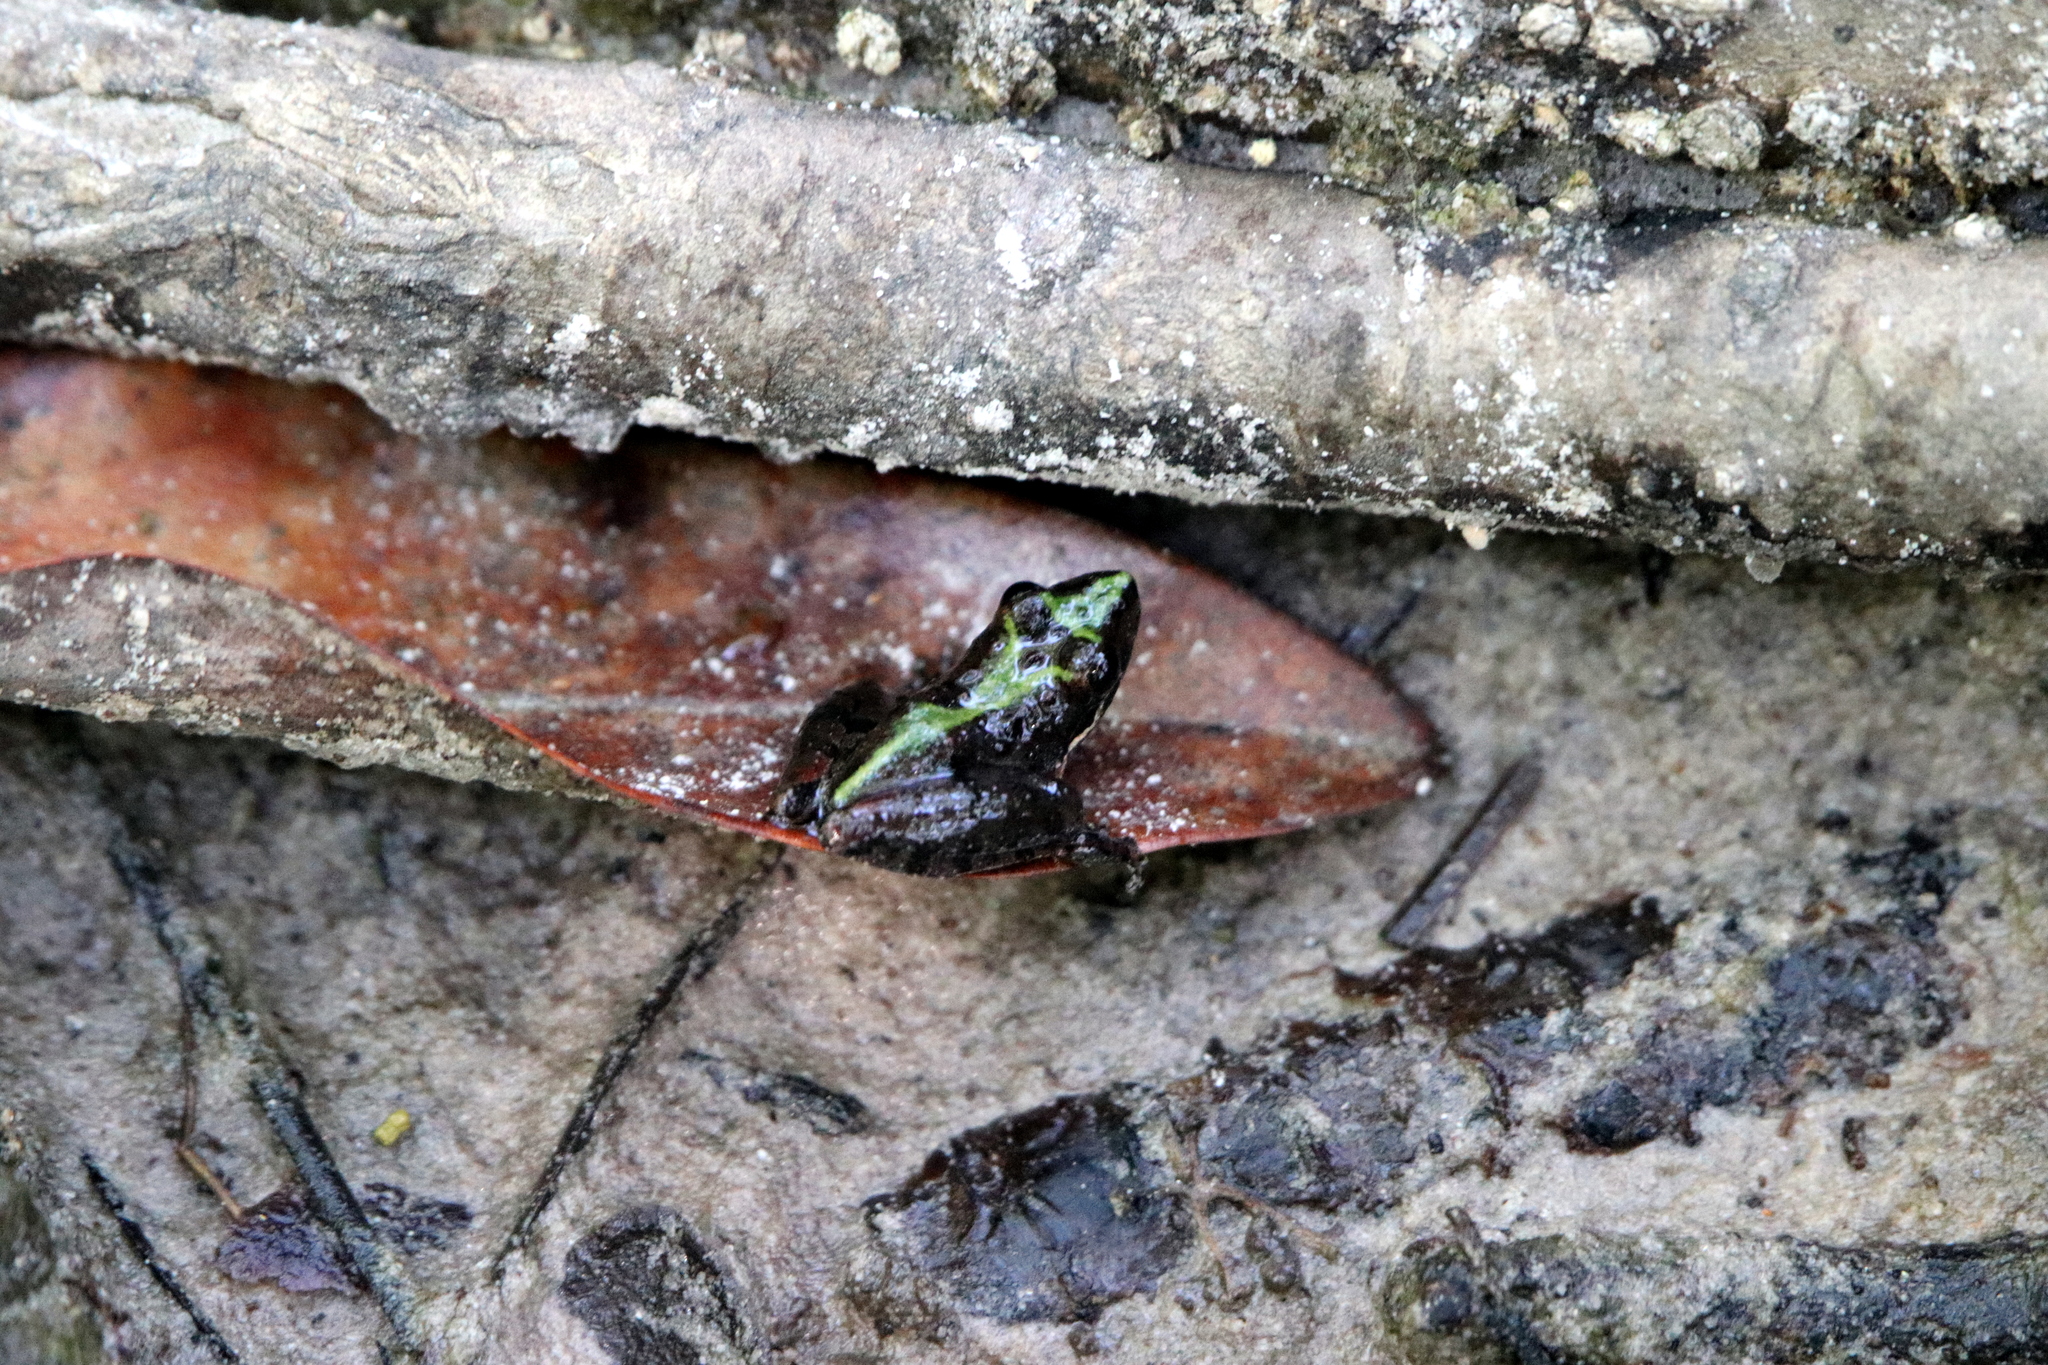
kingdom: Animalia
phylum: Chordata
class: Amphibia
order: Anura
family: Hylidae
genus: Acris
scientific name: Acris gryllus
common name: Southern cricket frog
